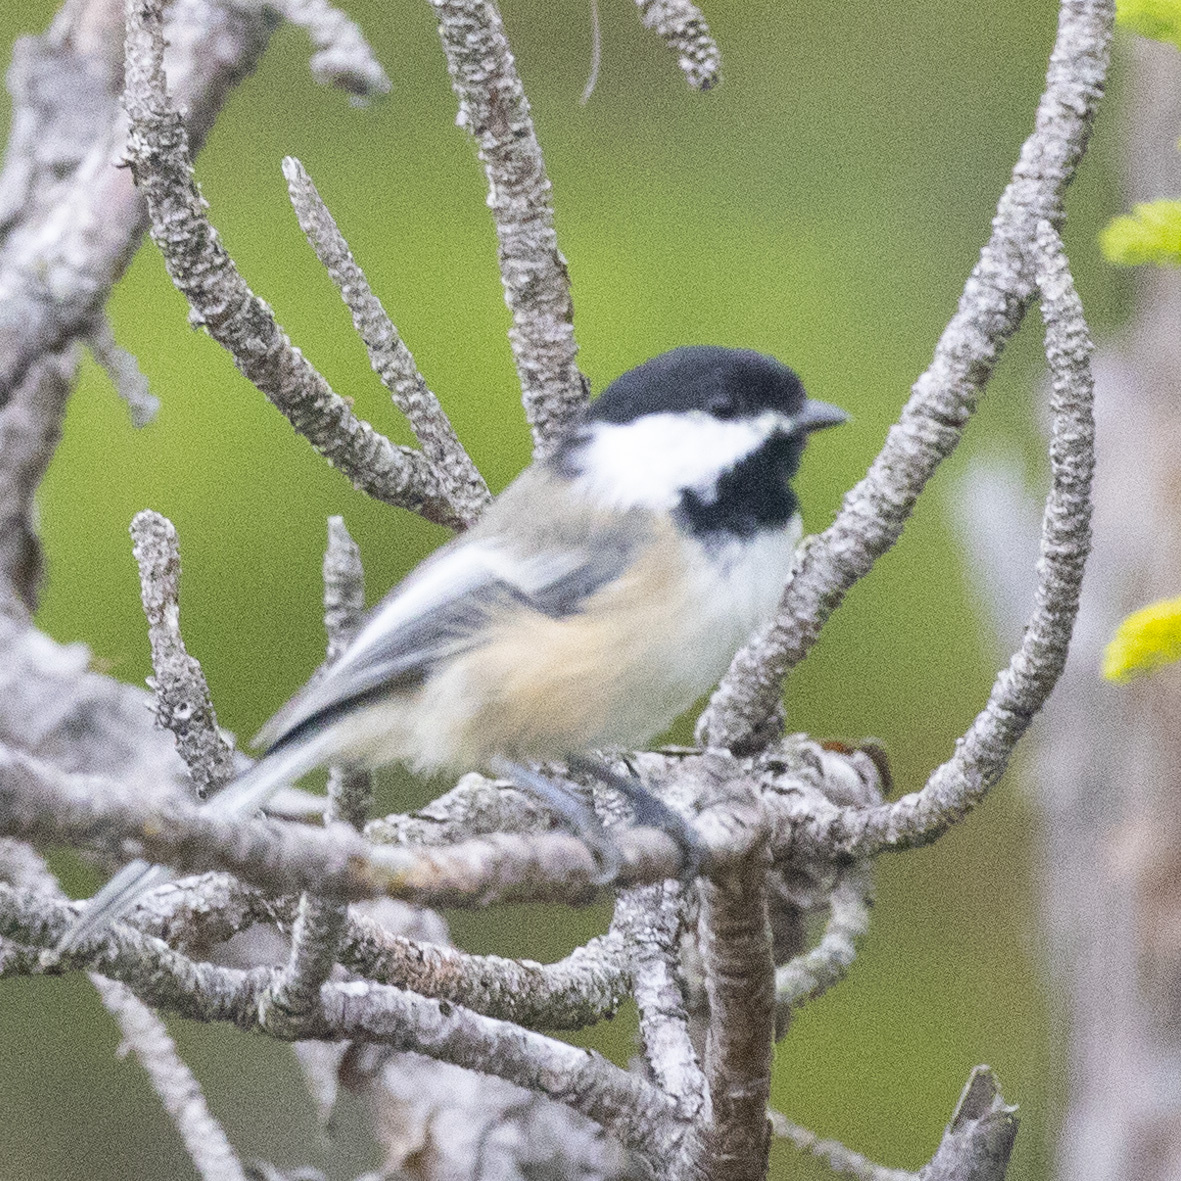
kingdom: Animalia
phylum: Chordata
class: Aves
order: Passeriformes
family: Paridae
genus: Poecile
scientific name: Poecile atricapillus
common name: Black-capped chickadee
